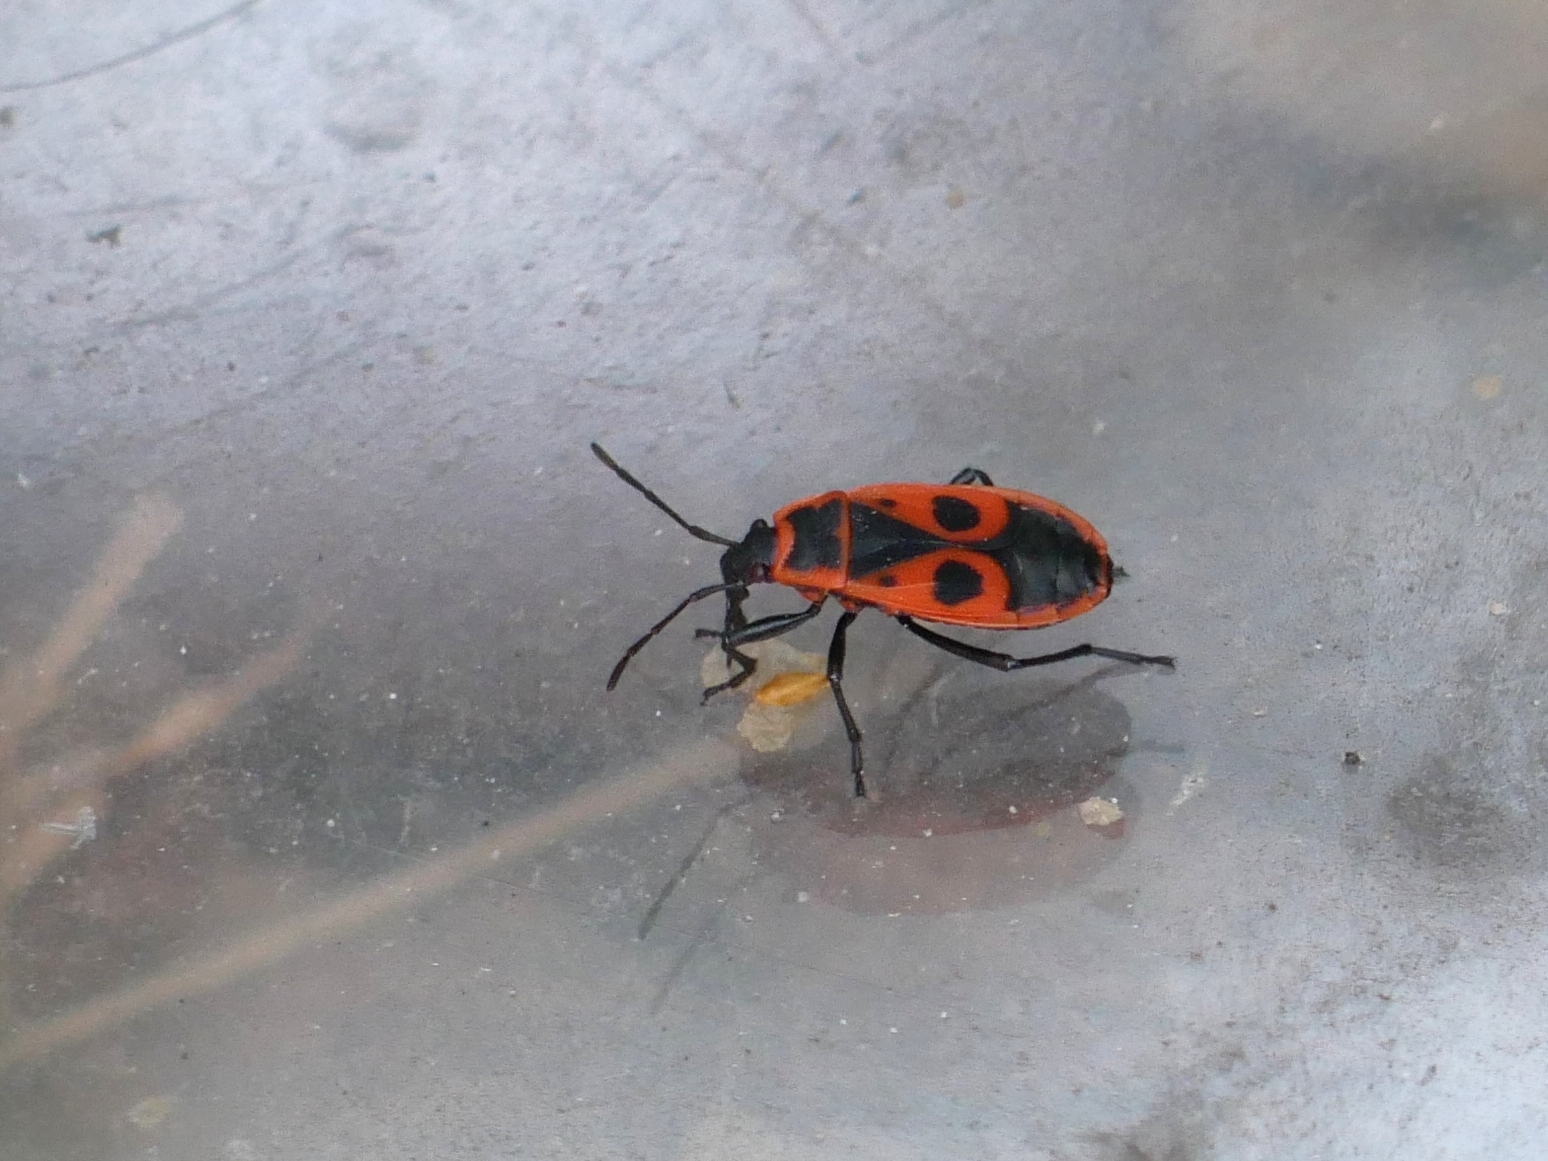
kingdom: Animalia
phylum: Arthropoda
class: Insecta
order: Hemiptera
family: Pyrrhocoridae
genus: Pyrrhocoris
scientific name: Pyrrhocoris apterus
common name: Firebug
